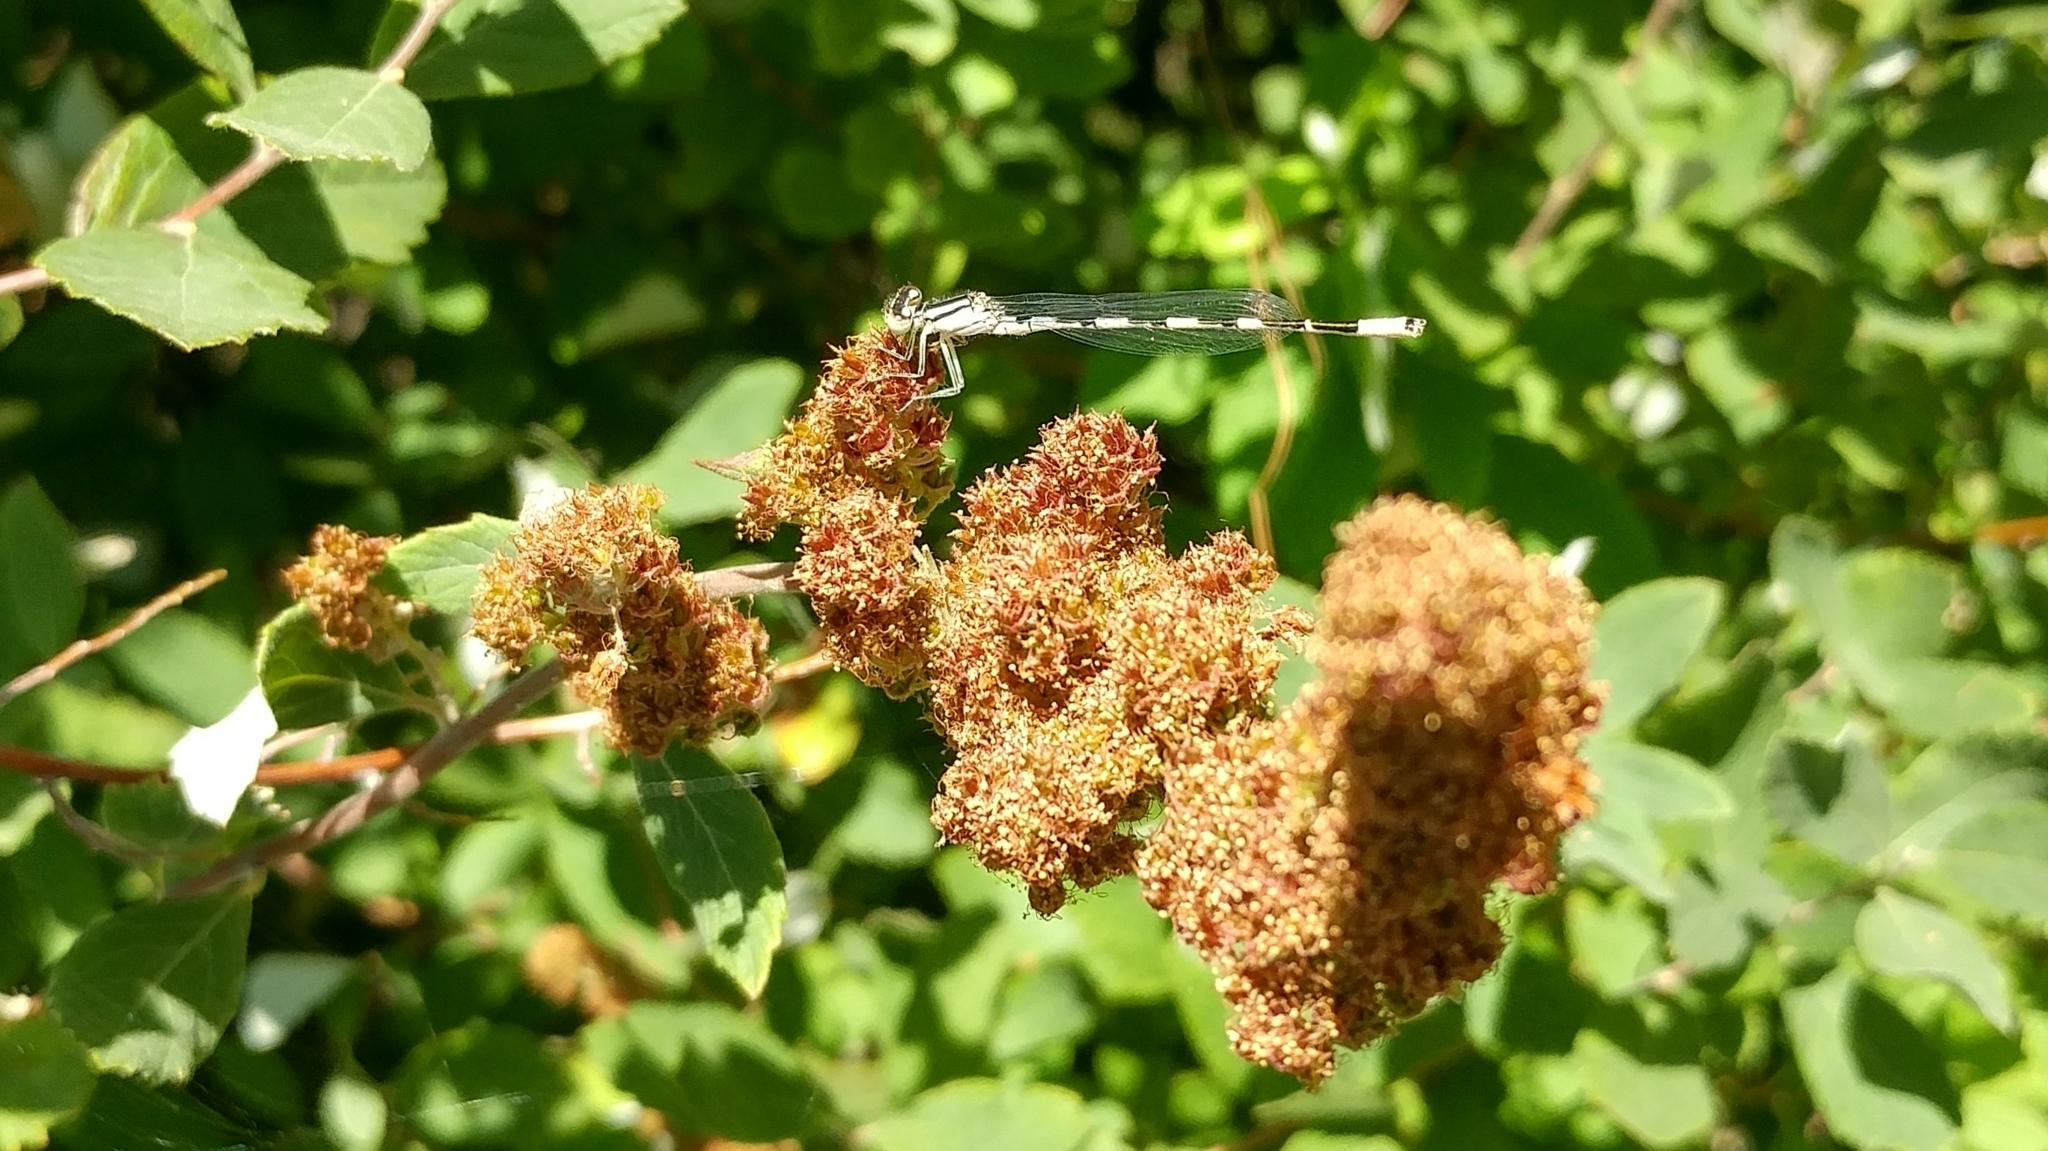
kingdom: Animalia
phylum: Arthropoda
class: Insecta
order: Odonata
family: Coenagrionidae
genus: Enallagma
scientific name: Enallagma carunculatum
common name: Tule bluet
